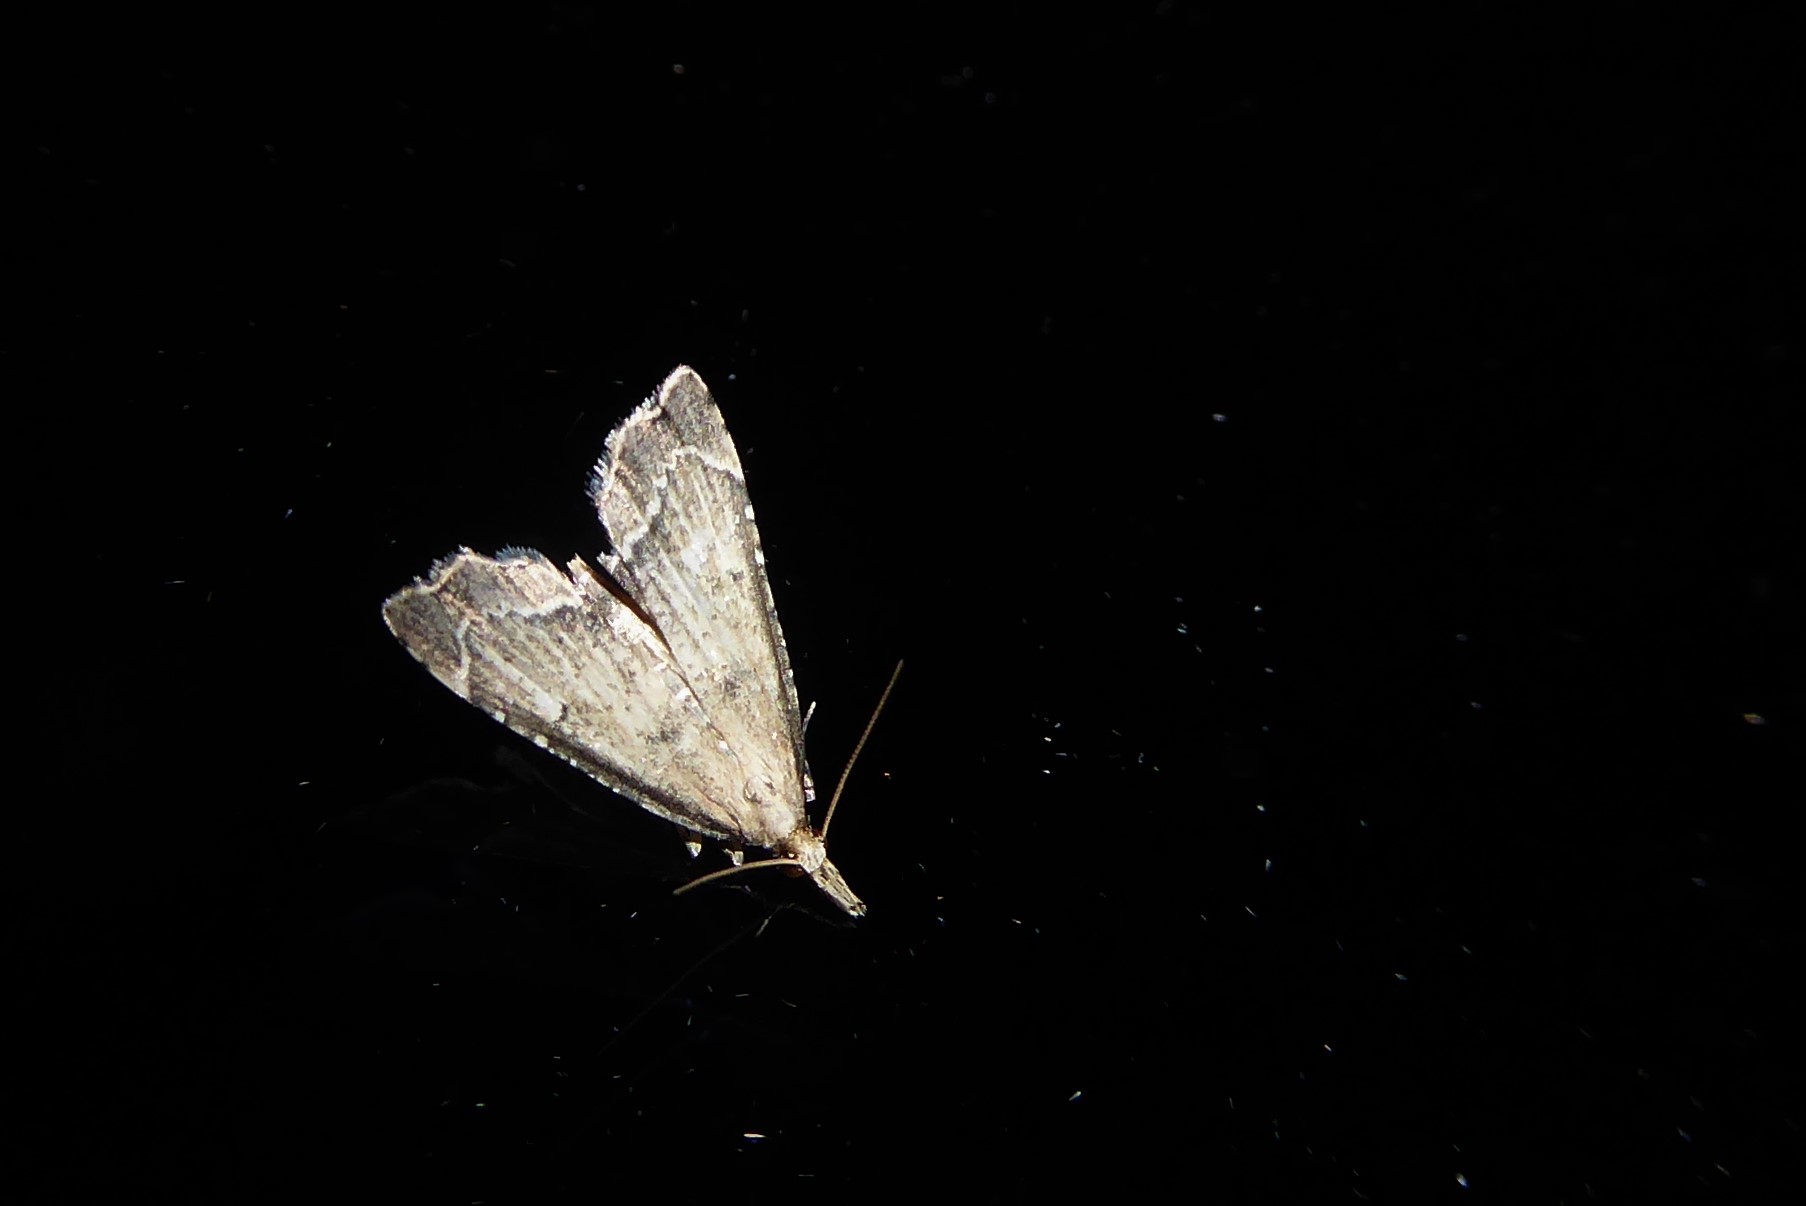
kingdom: Animalia
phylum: Arthropoda
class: Insecta
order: Lepidoptera
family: Crambidae
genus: Diplopseustis
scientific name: Diplopseustis perieresalis
